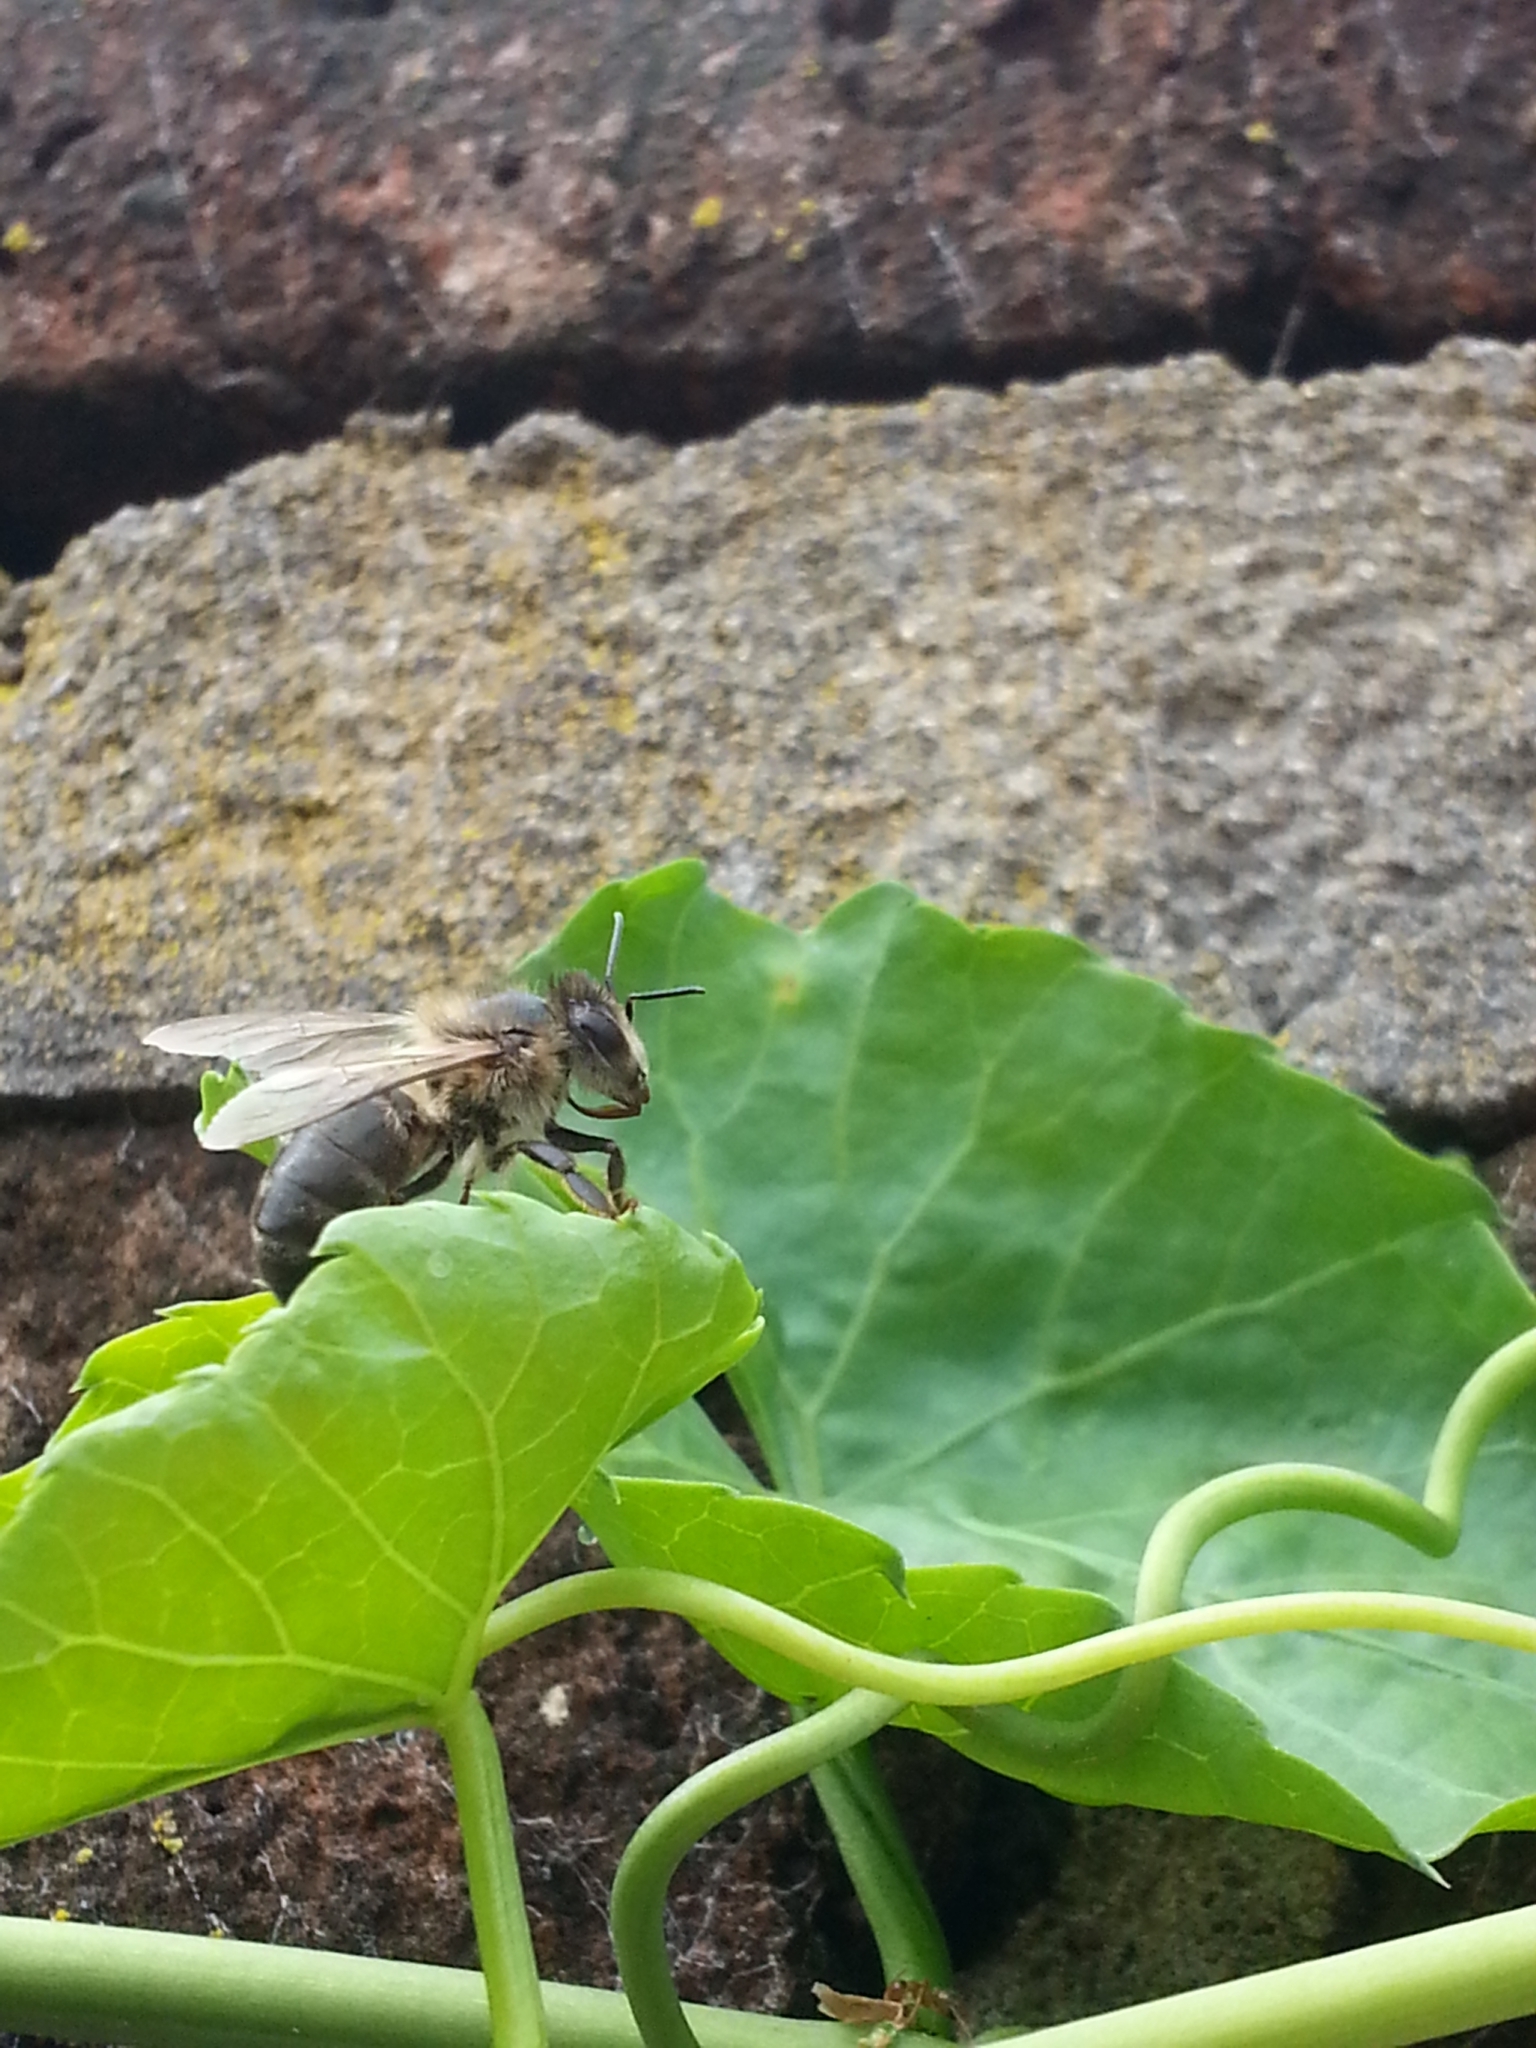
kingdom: Animalia
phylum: Arthropoda
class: Insecta
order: Hymenoptera
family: Apidae
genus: Apis
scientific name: Apis mellifera
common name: Honey bee
